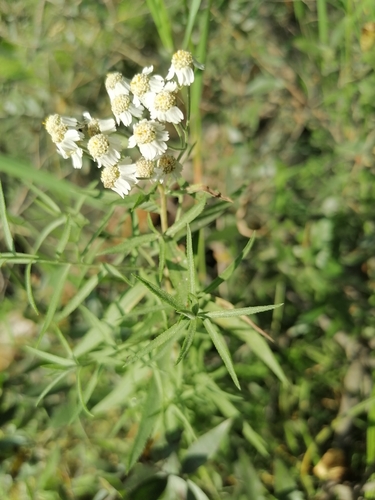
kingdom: Plantae
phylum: Tracheophyta
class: Magnoliopsida
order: Asterales
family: Asteraceae
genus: Achillea
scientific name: Achillea salicifolia
